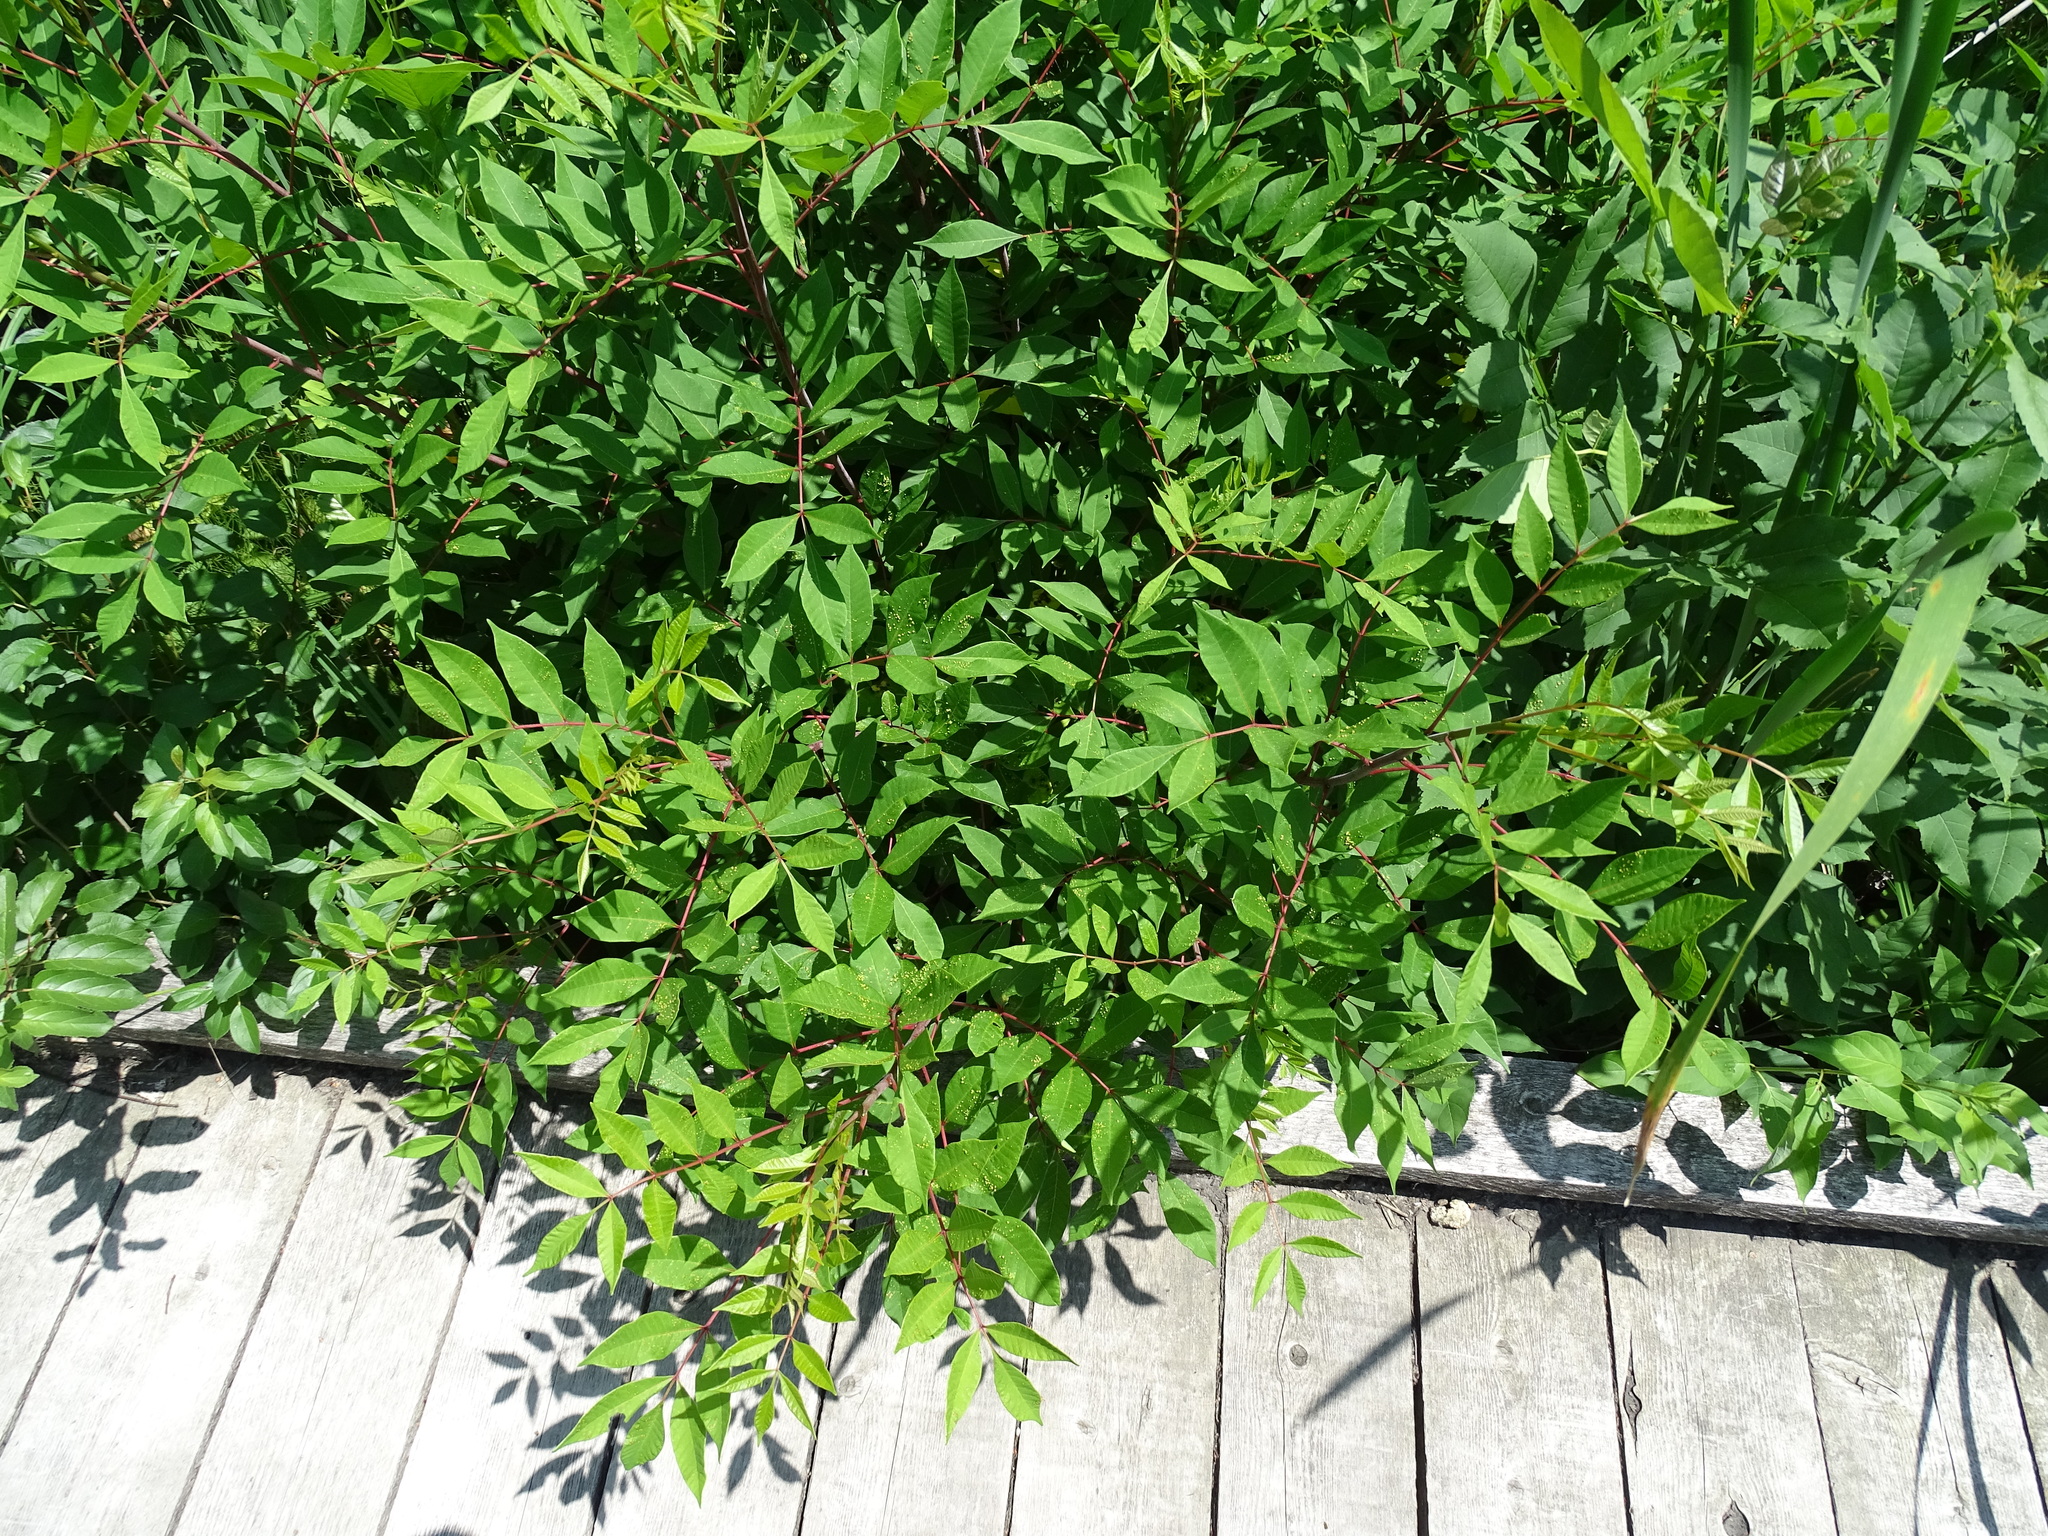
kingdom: Plantae
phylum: Tracheophyta
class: Magnoliopsida
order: Sapindales
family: Anacardiaceae
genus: Toxicodendron
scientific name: Toxicodendron vernix
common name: Poison sumac
